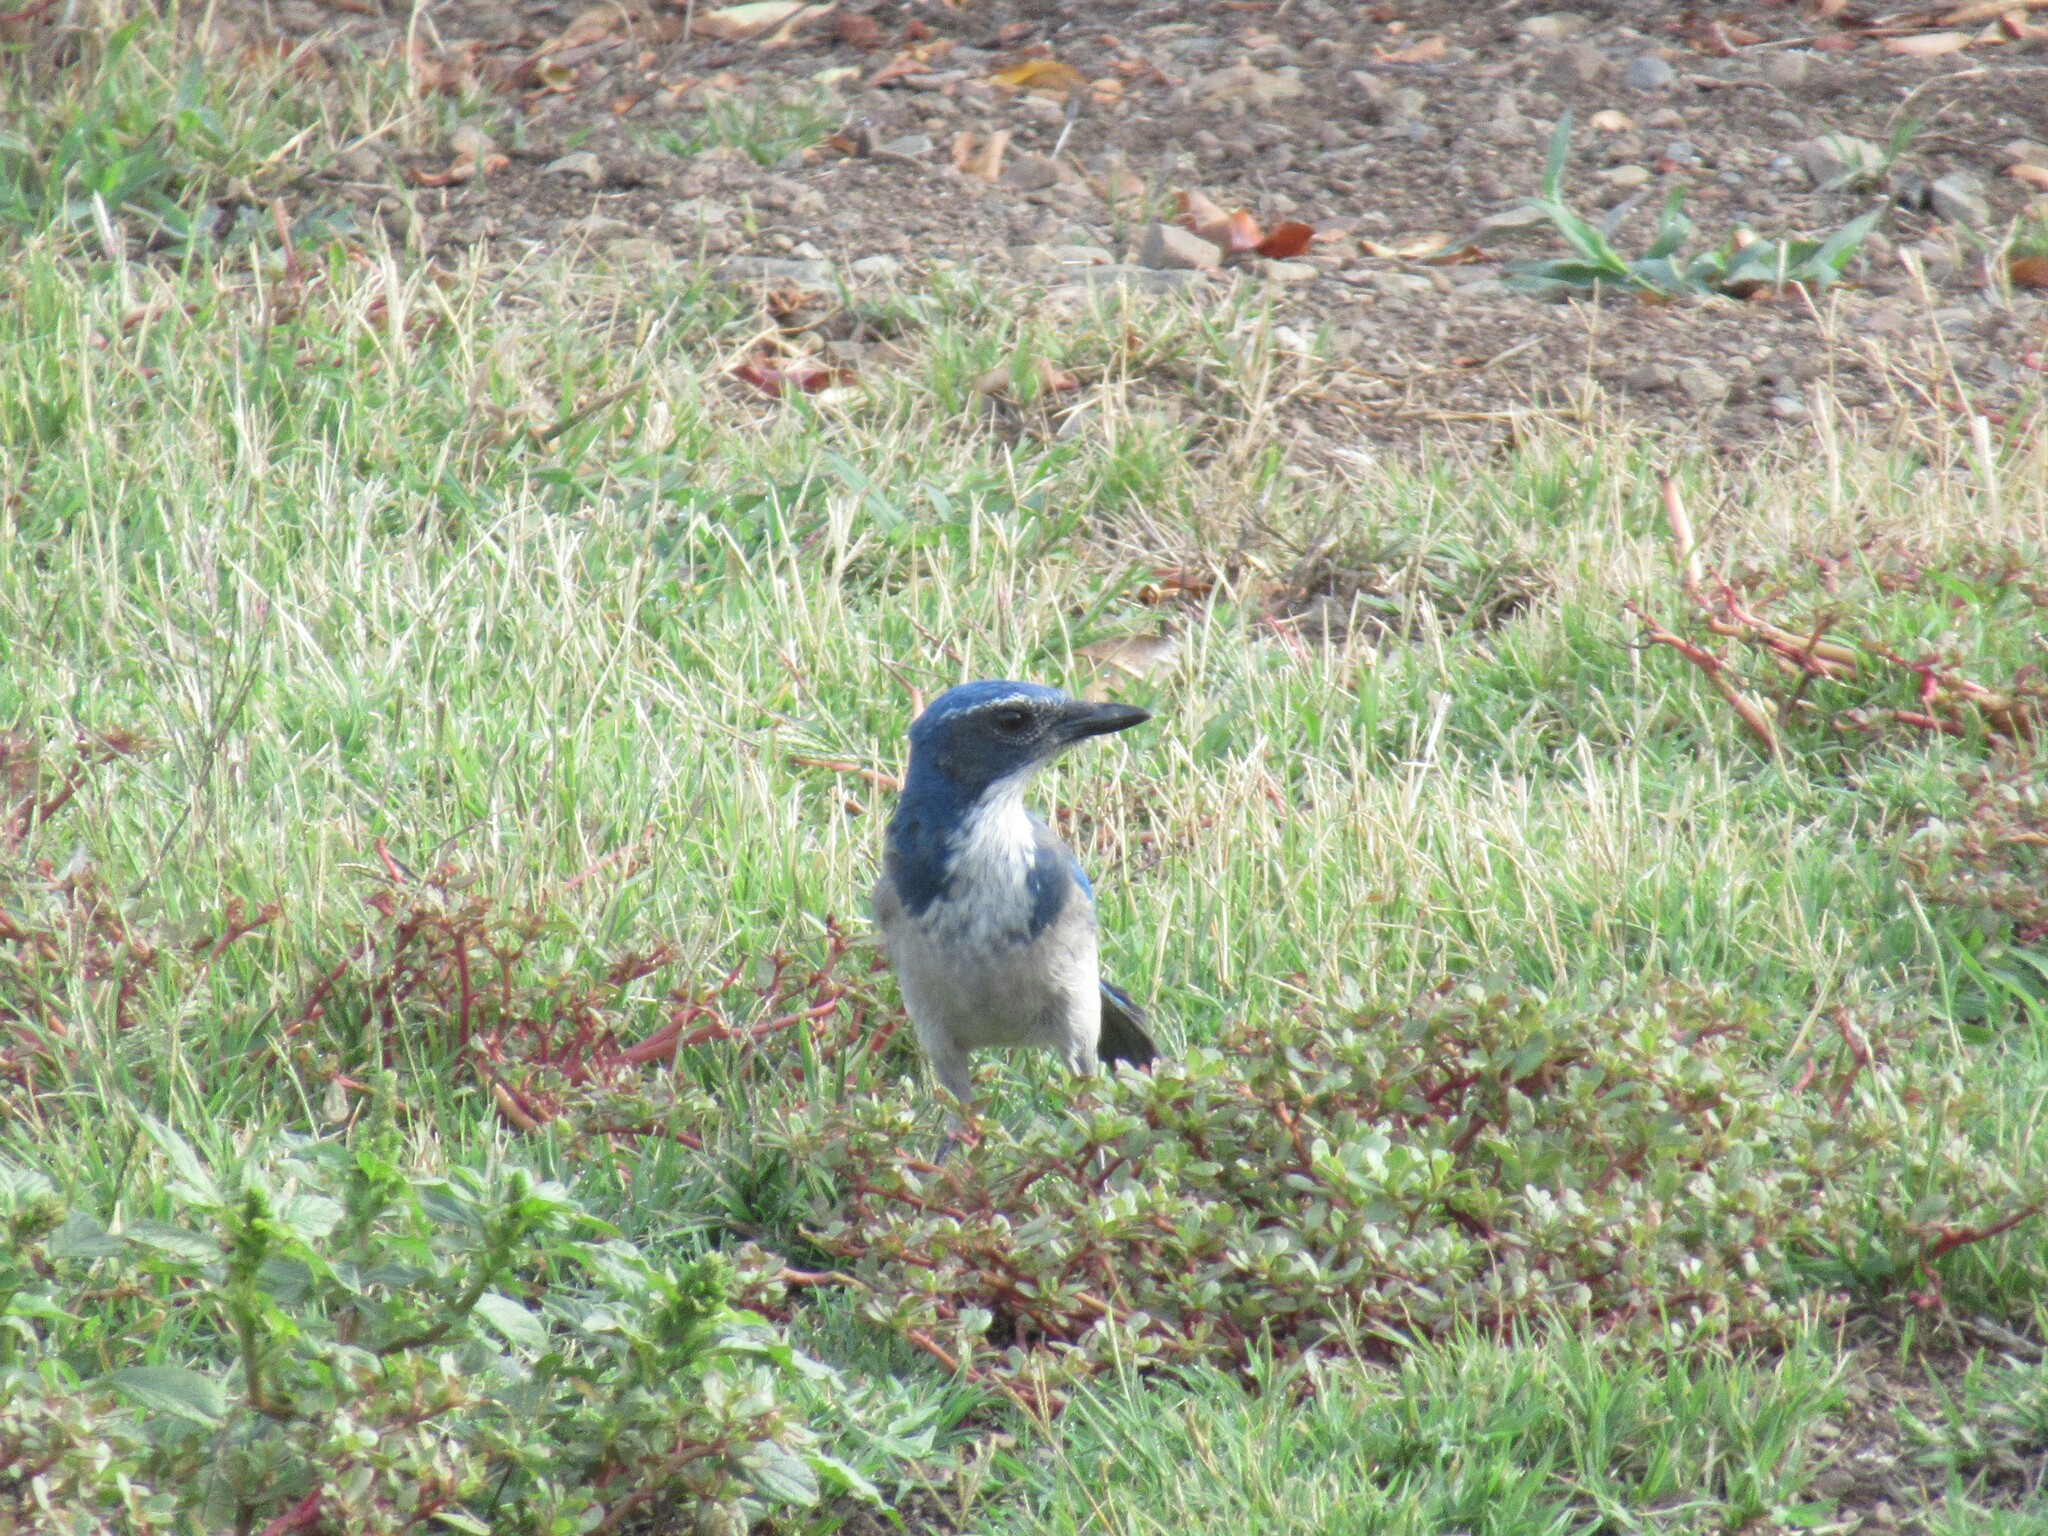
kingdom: Animalia
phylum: Chordata
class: Aves
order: Passeriformes
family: Corvidae
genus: Aphelocoma
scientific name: Aphelocoma californica
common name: California scrub-jay
